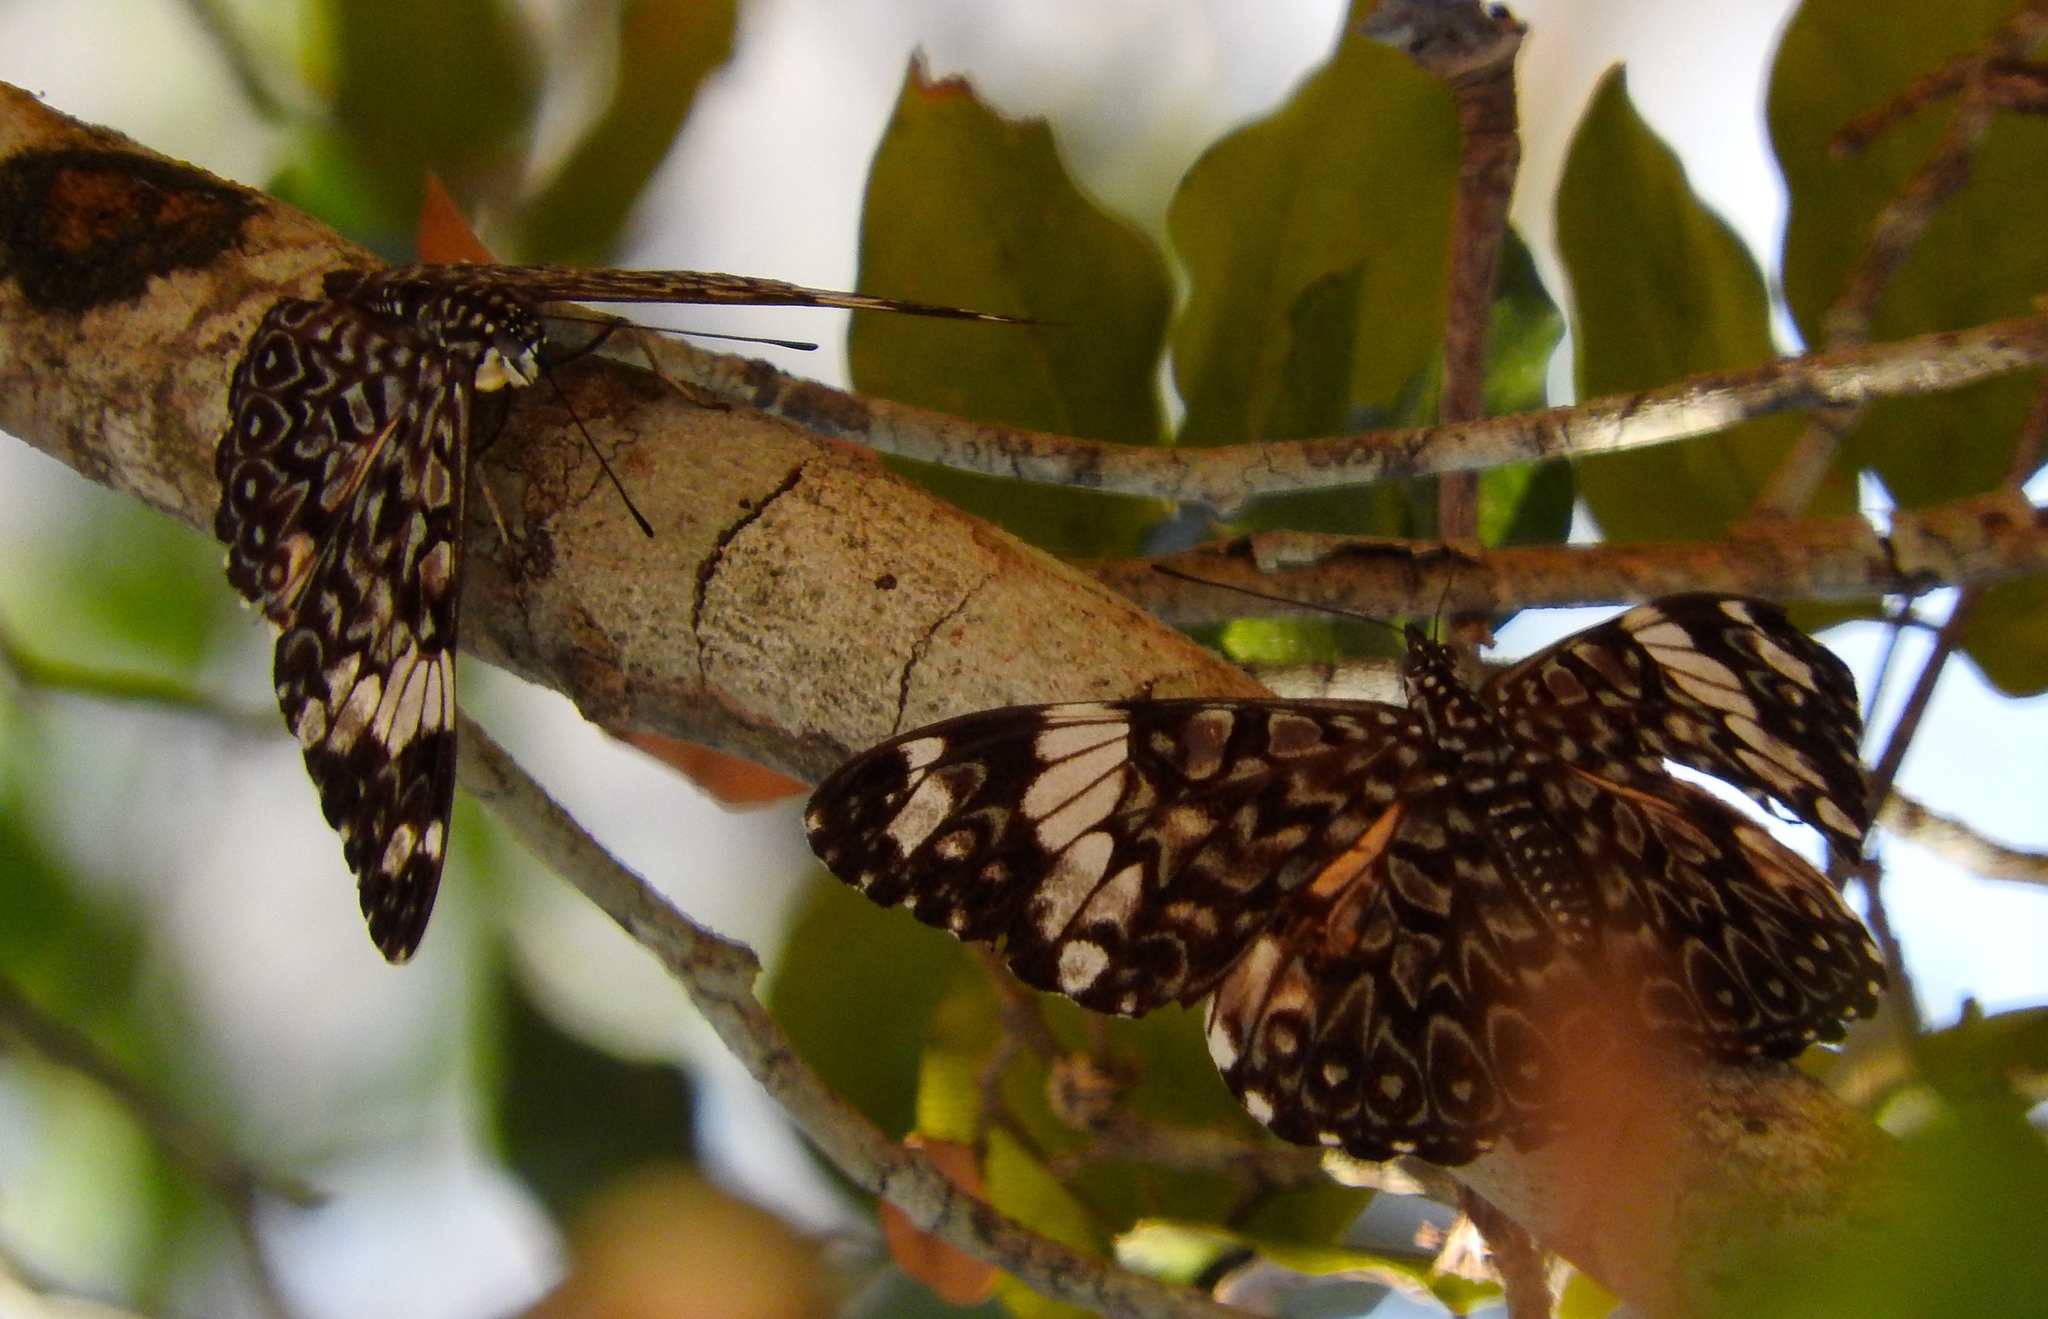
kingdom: Animalia
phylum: Arthropoda
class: Insecta
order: Lepidoptera
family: Nymphalidae
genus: Hamadryas
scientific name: Hamadryas amphinome
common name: Red cracker
